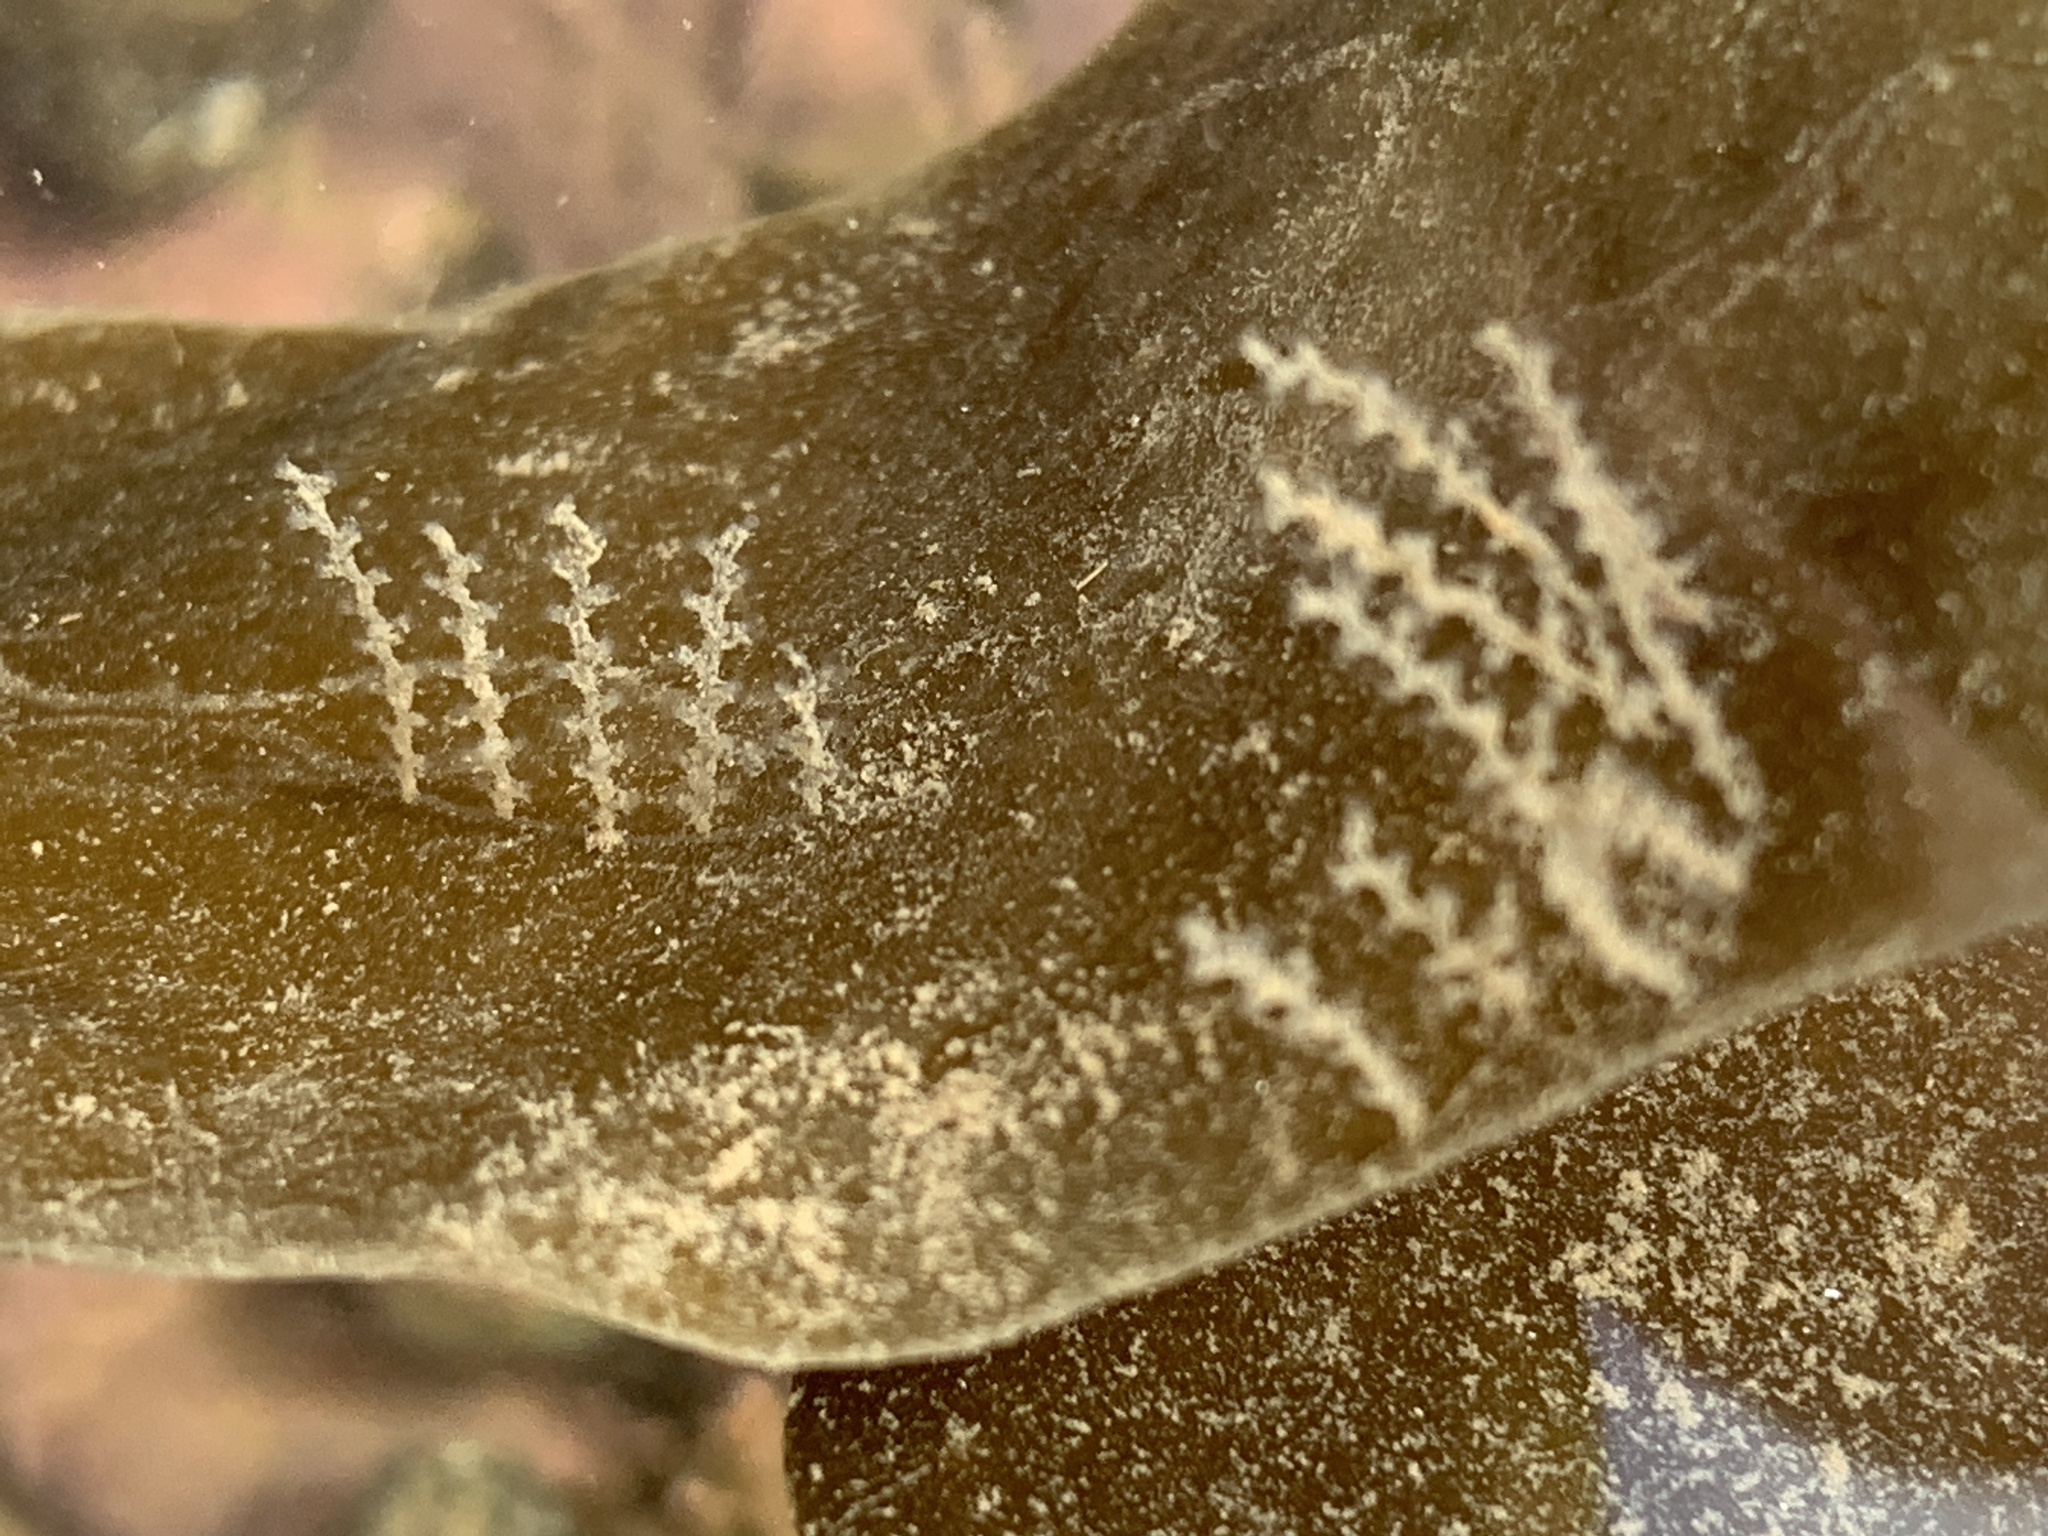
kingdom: Animalia
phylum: Cnidaria
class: Hydrozoa
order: Leptothecata
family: Campanulariidae
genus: Obelia
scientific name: Obelia geniculata
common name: Bell hydroid
